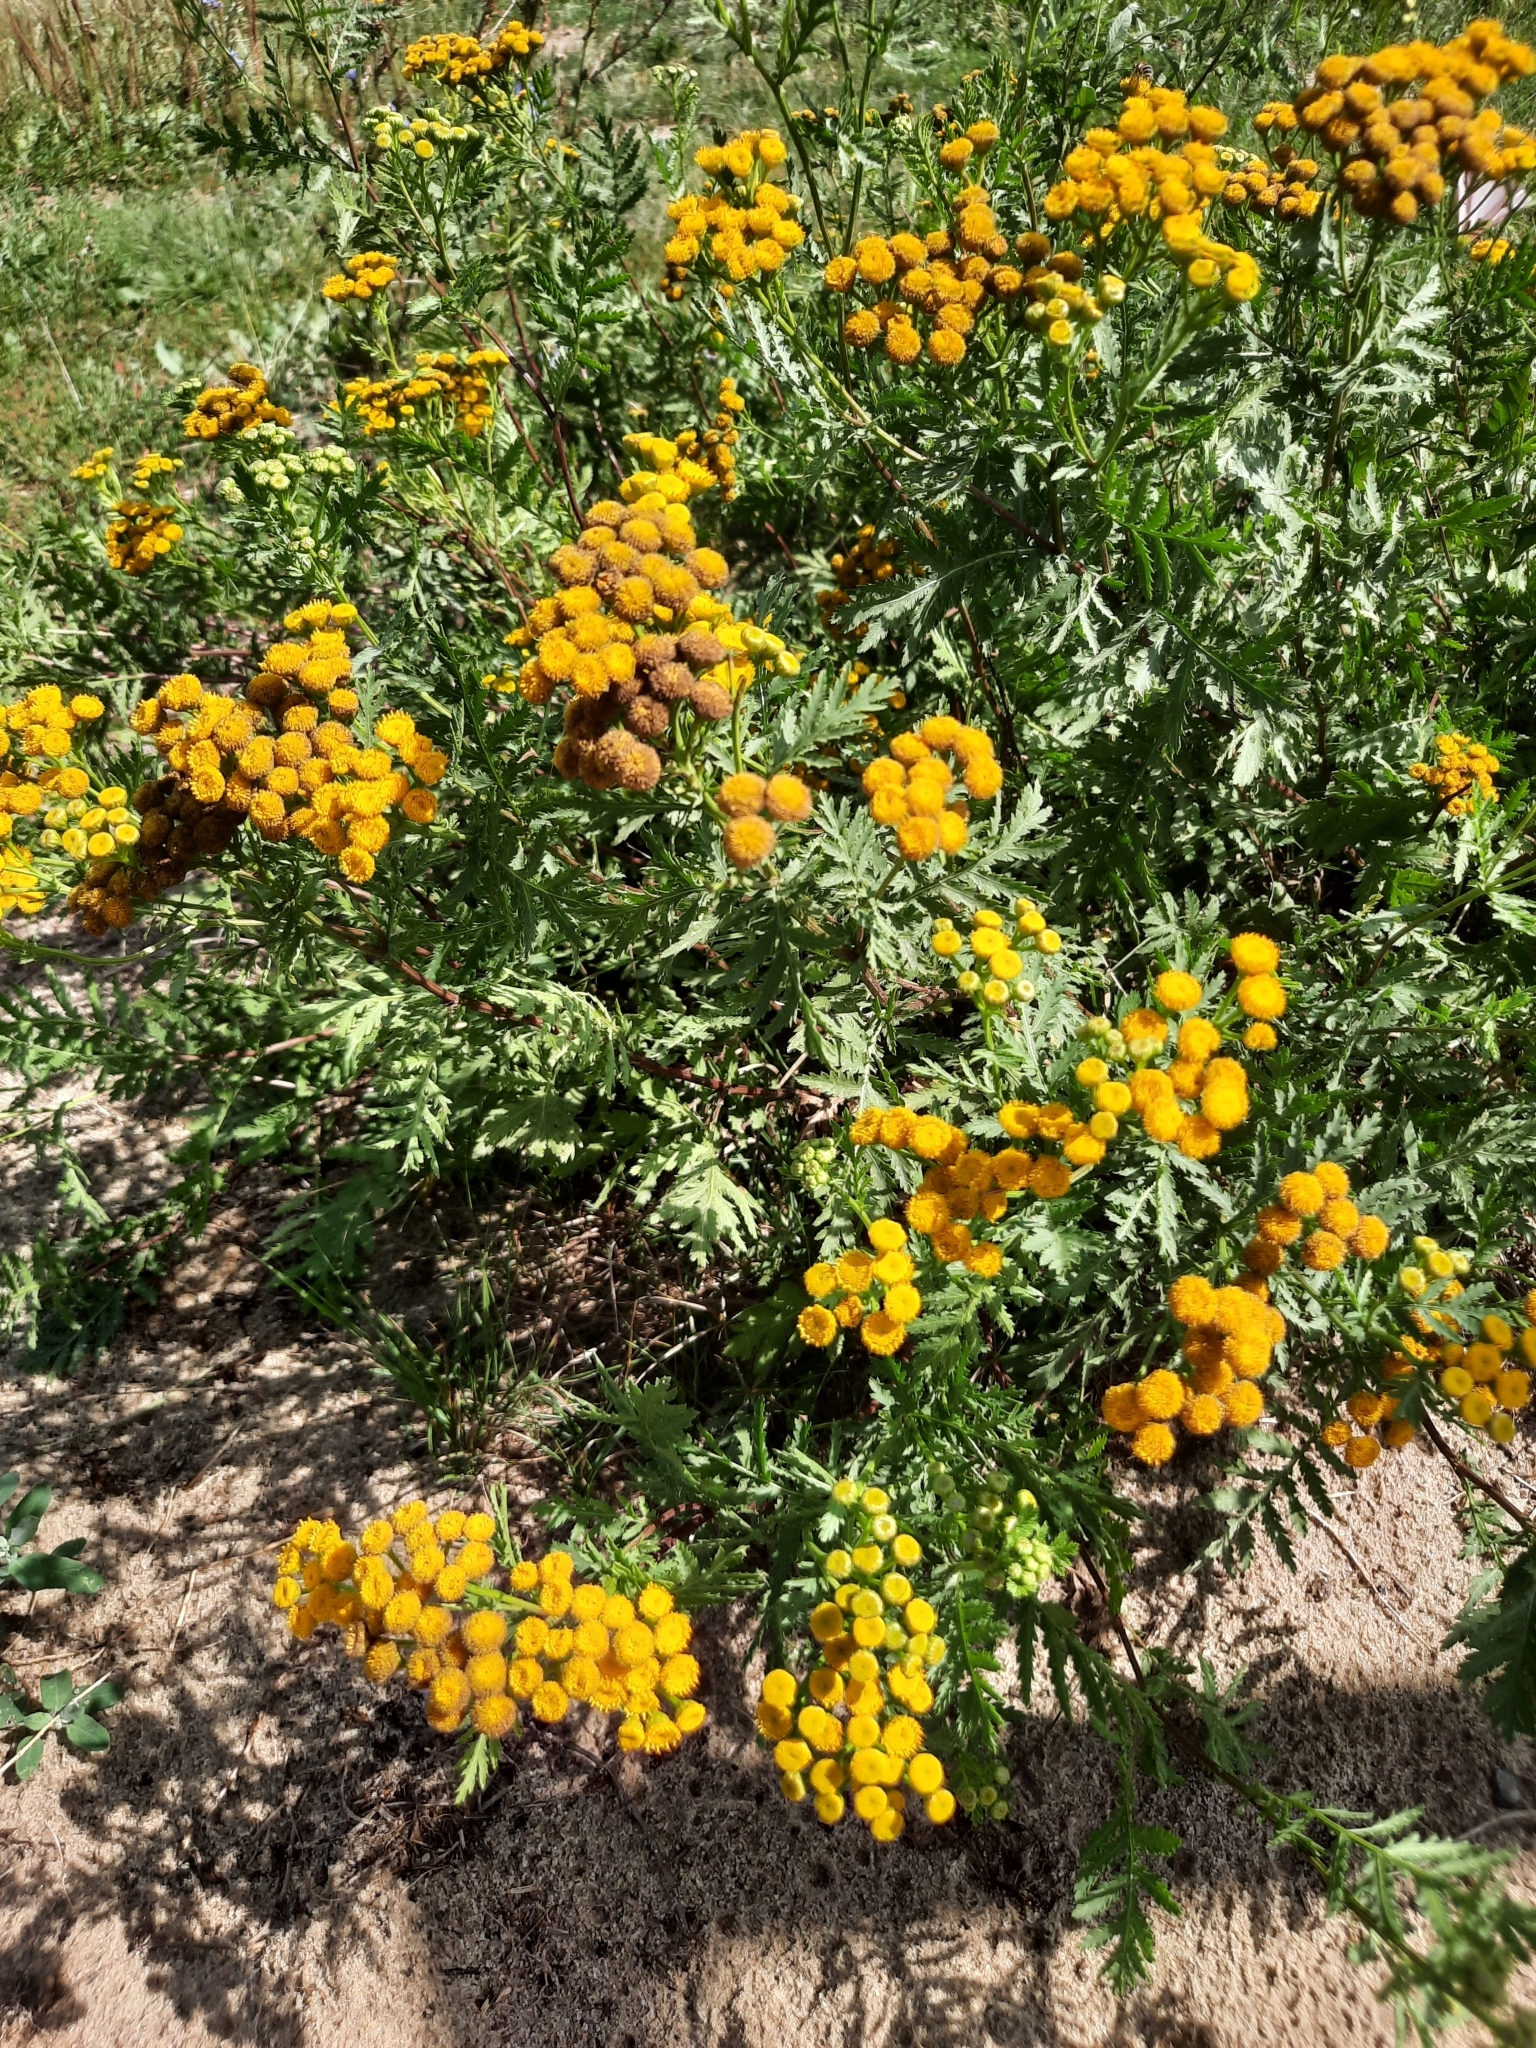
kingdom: Plantae
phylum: Tracheophyta
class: Magnoliopsida
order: Asterales
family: Asteraceae
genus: Tanacetum
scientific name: Tanacetum vulgare
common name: Common tansy
